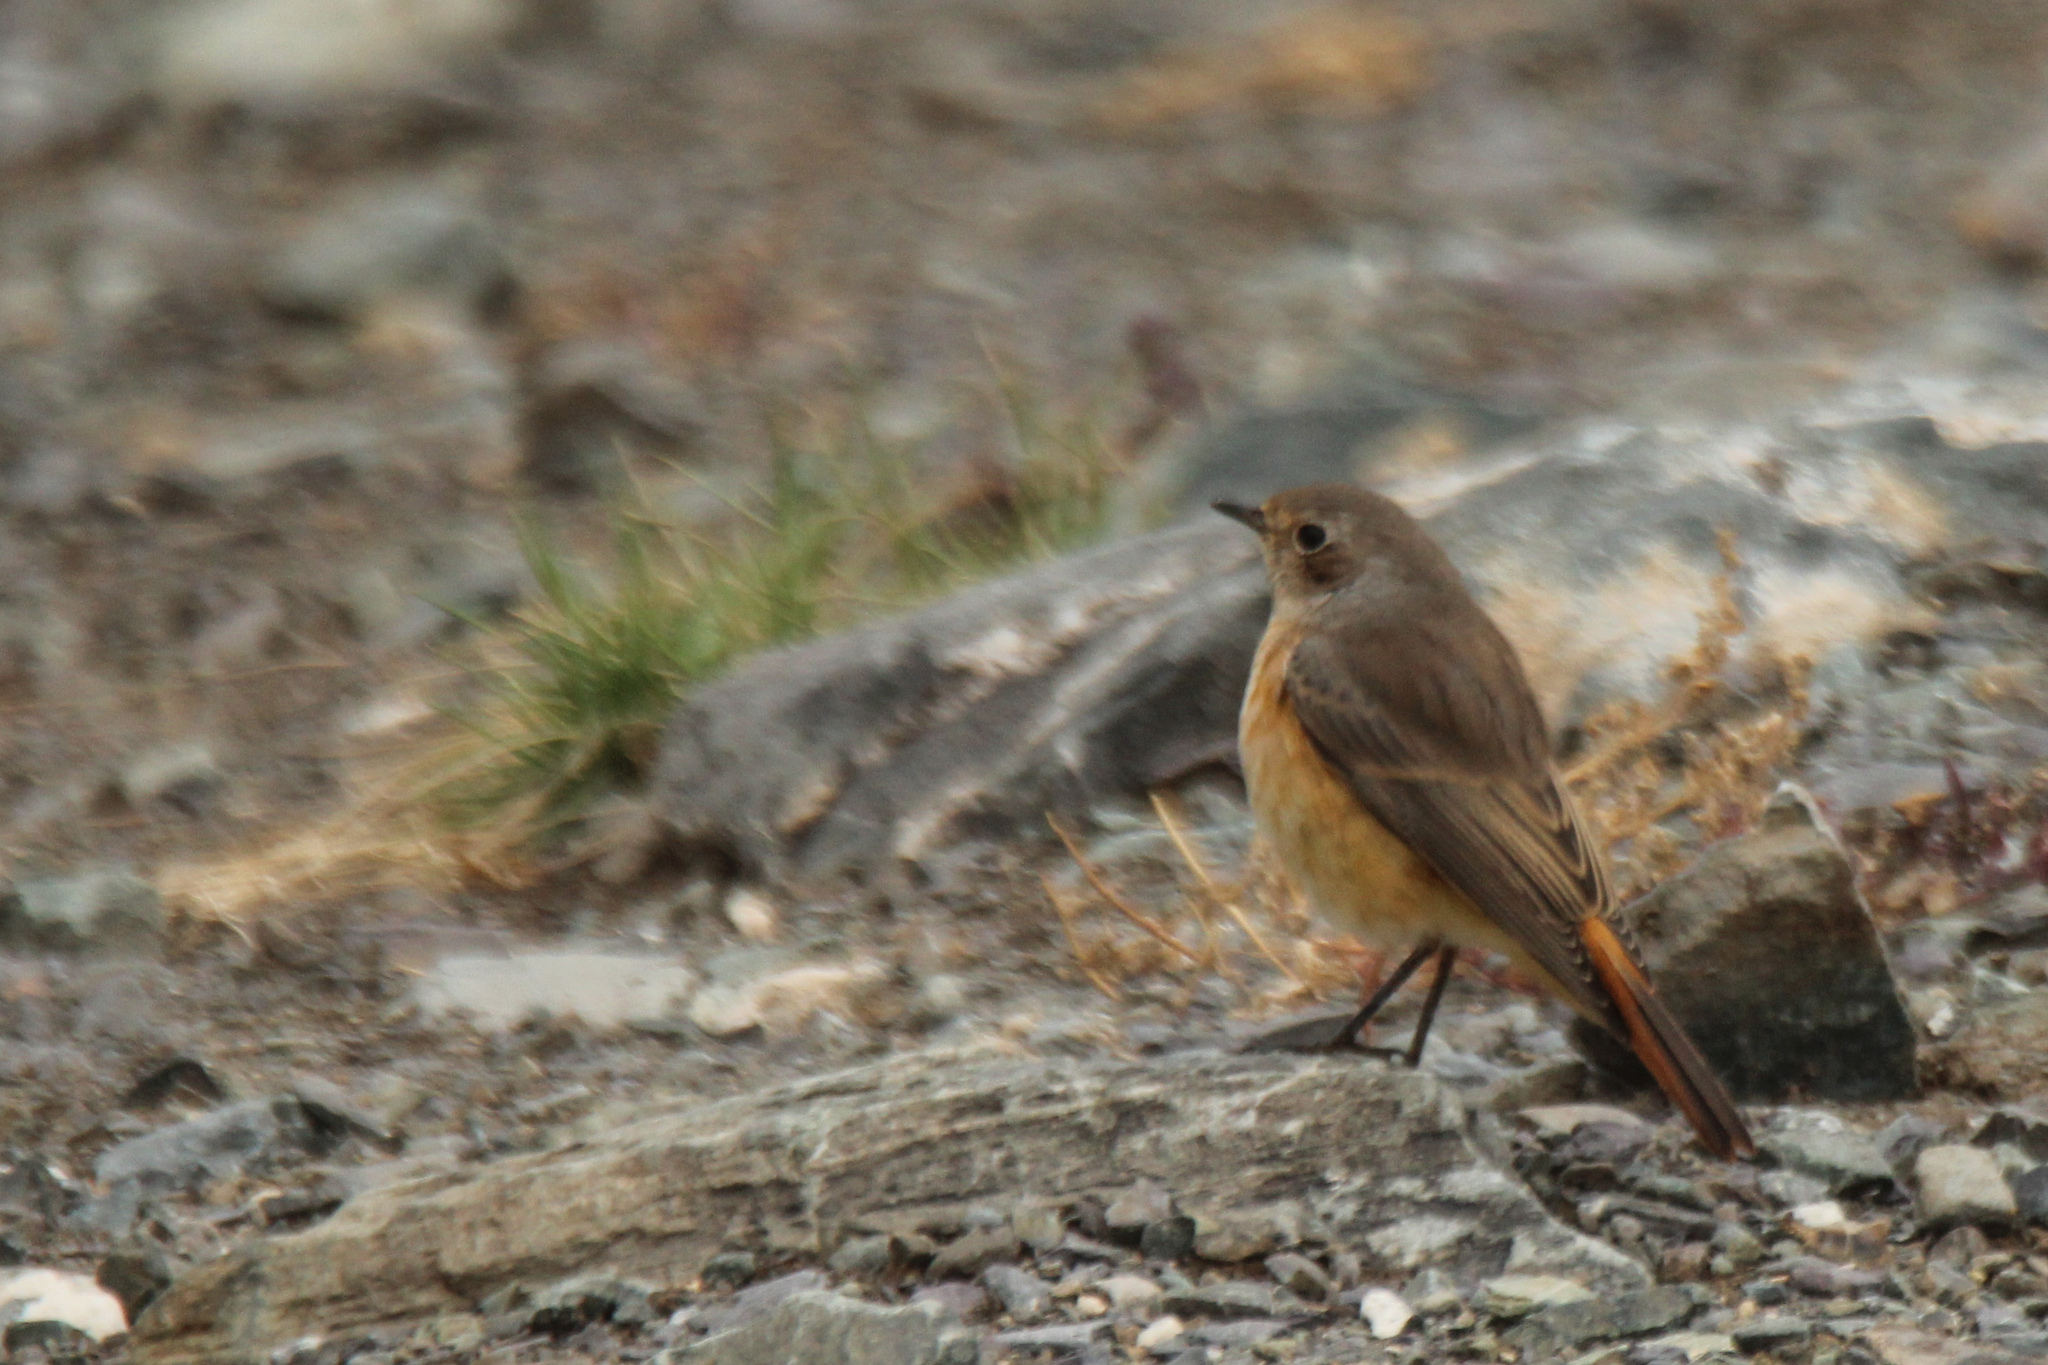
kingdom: Animalia
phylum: Chordata
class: Aves
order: Passeriformes
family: Muscicapidae
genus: Phoenicurus
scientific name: Phoenicurus phoenicurus
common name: Common redstart
